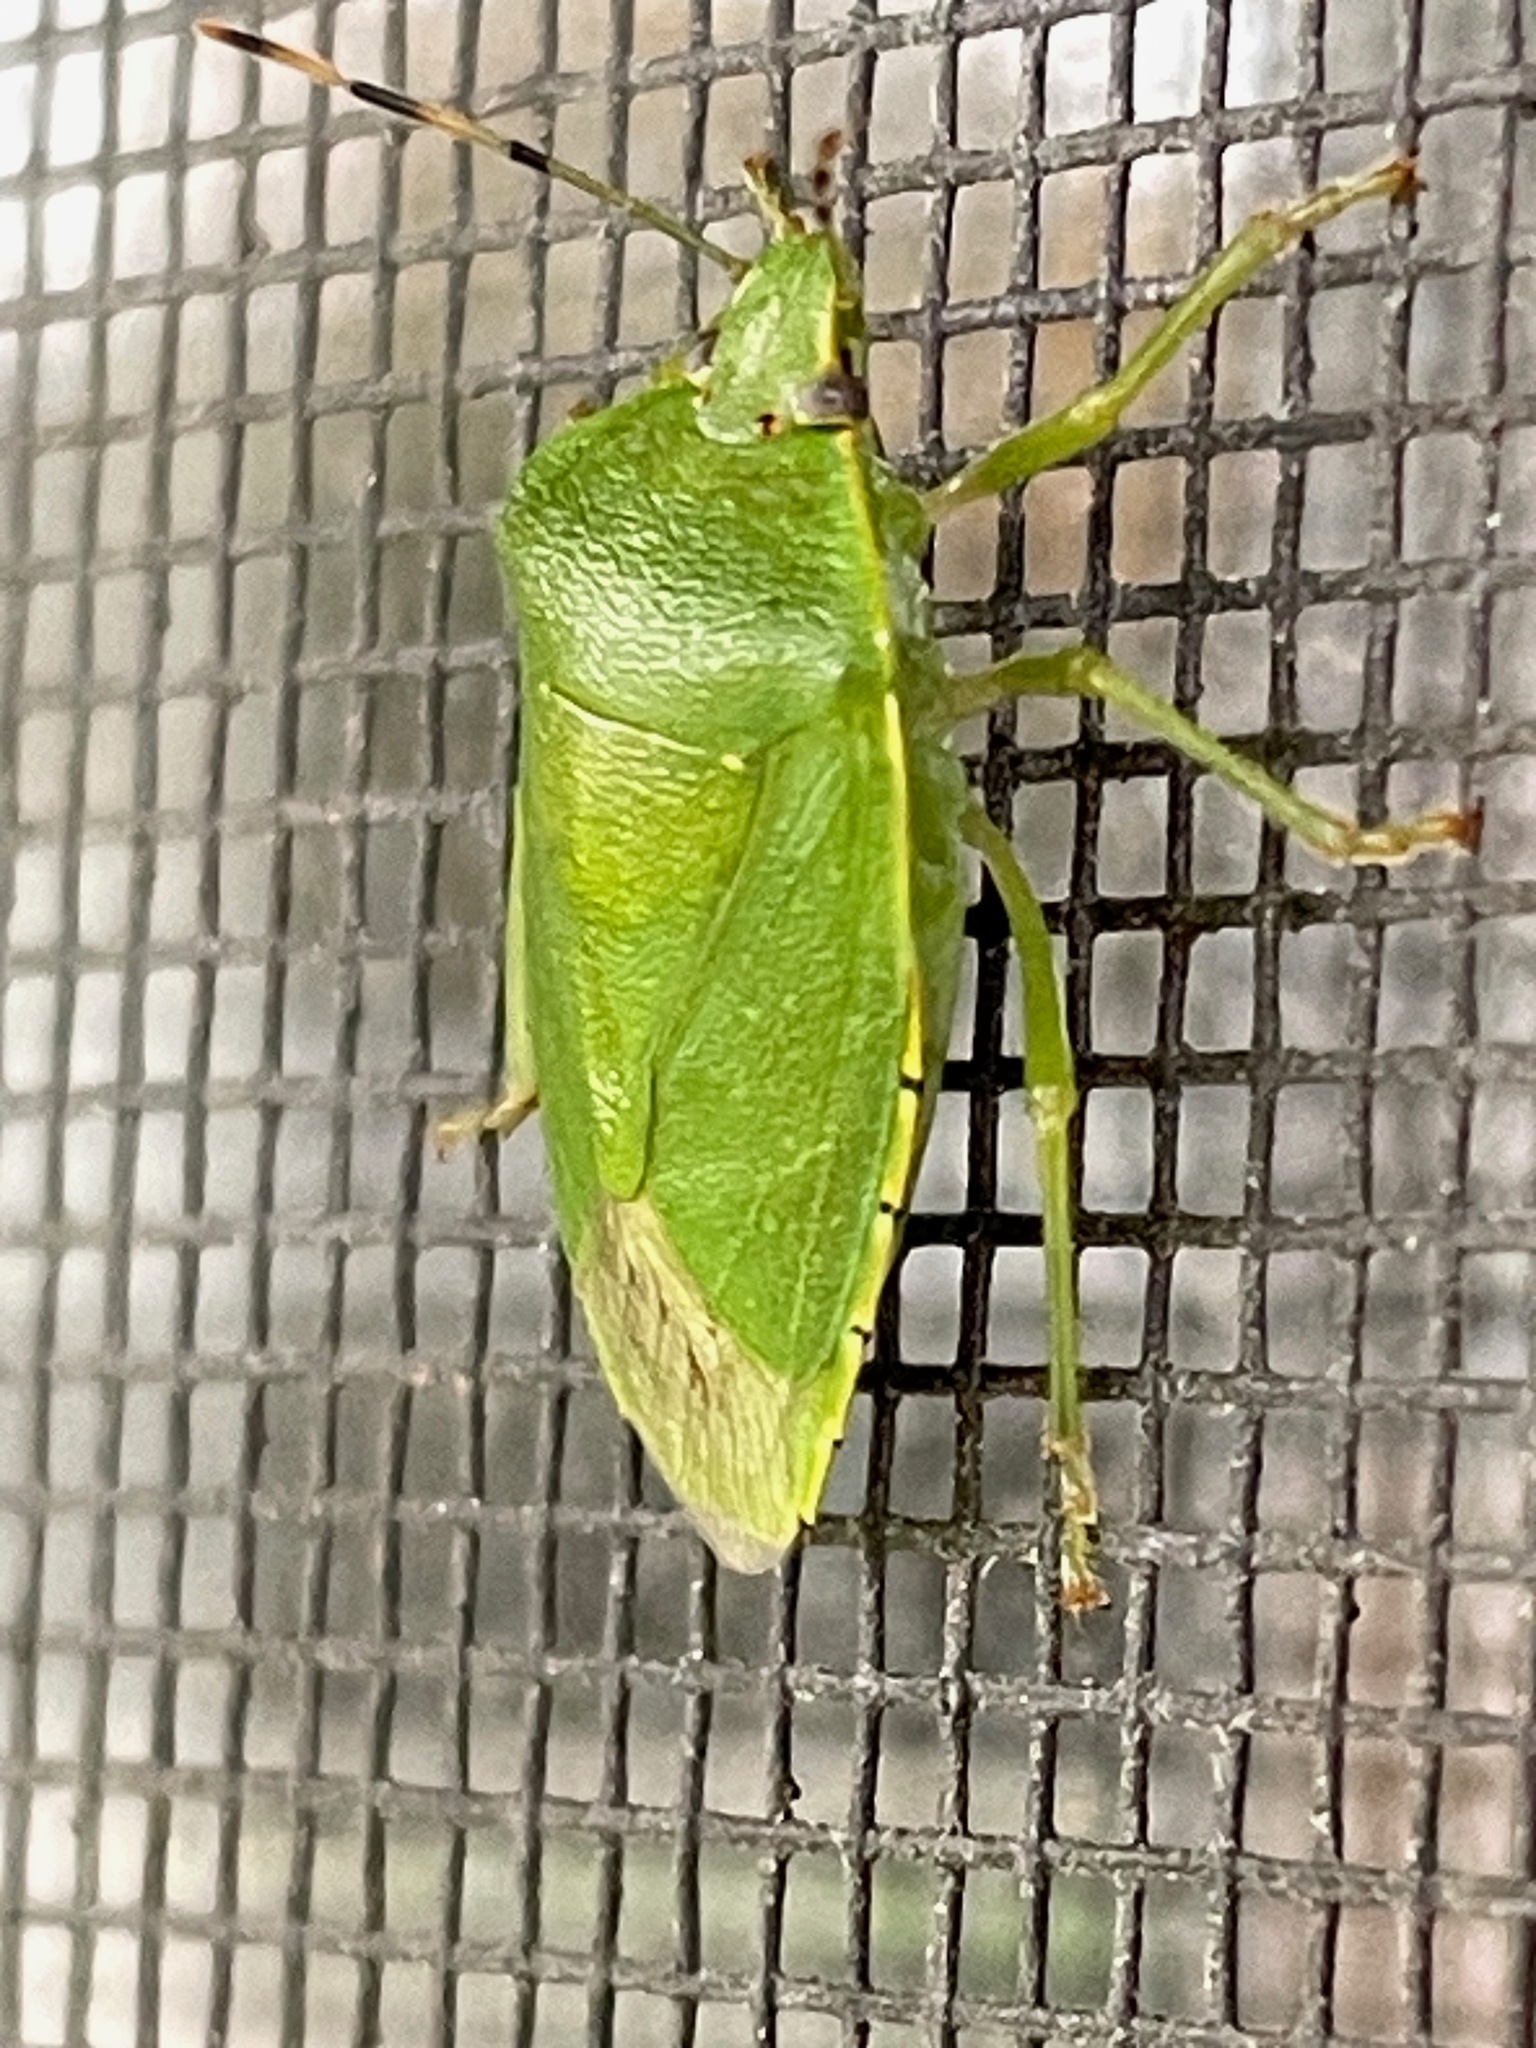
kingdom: Animalia
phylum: Arthropoda
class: Insecta
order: Hemiptera
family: Pentatomidae
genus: Chinavia
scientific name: Chinavia hilaris
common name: Green stink bug
